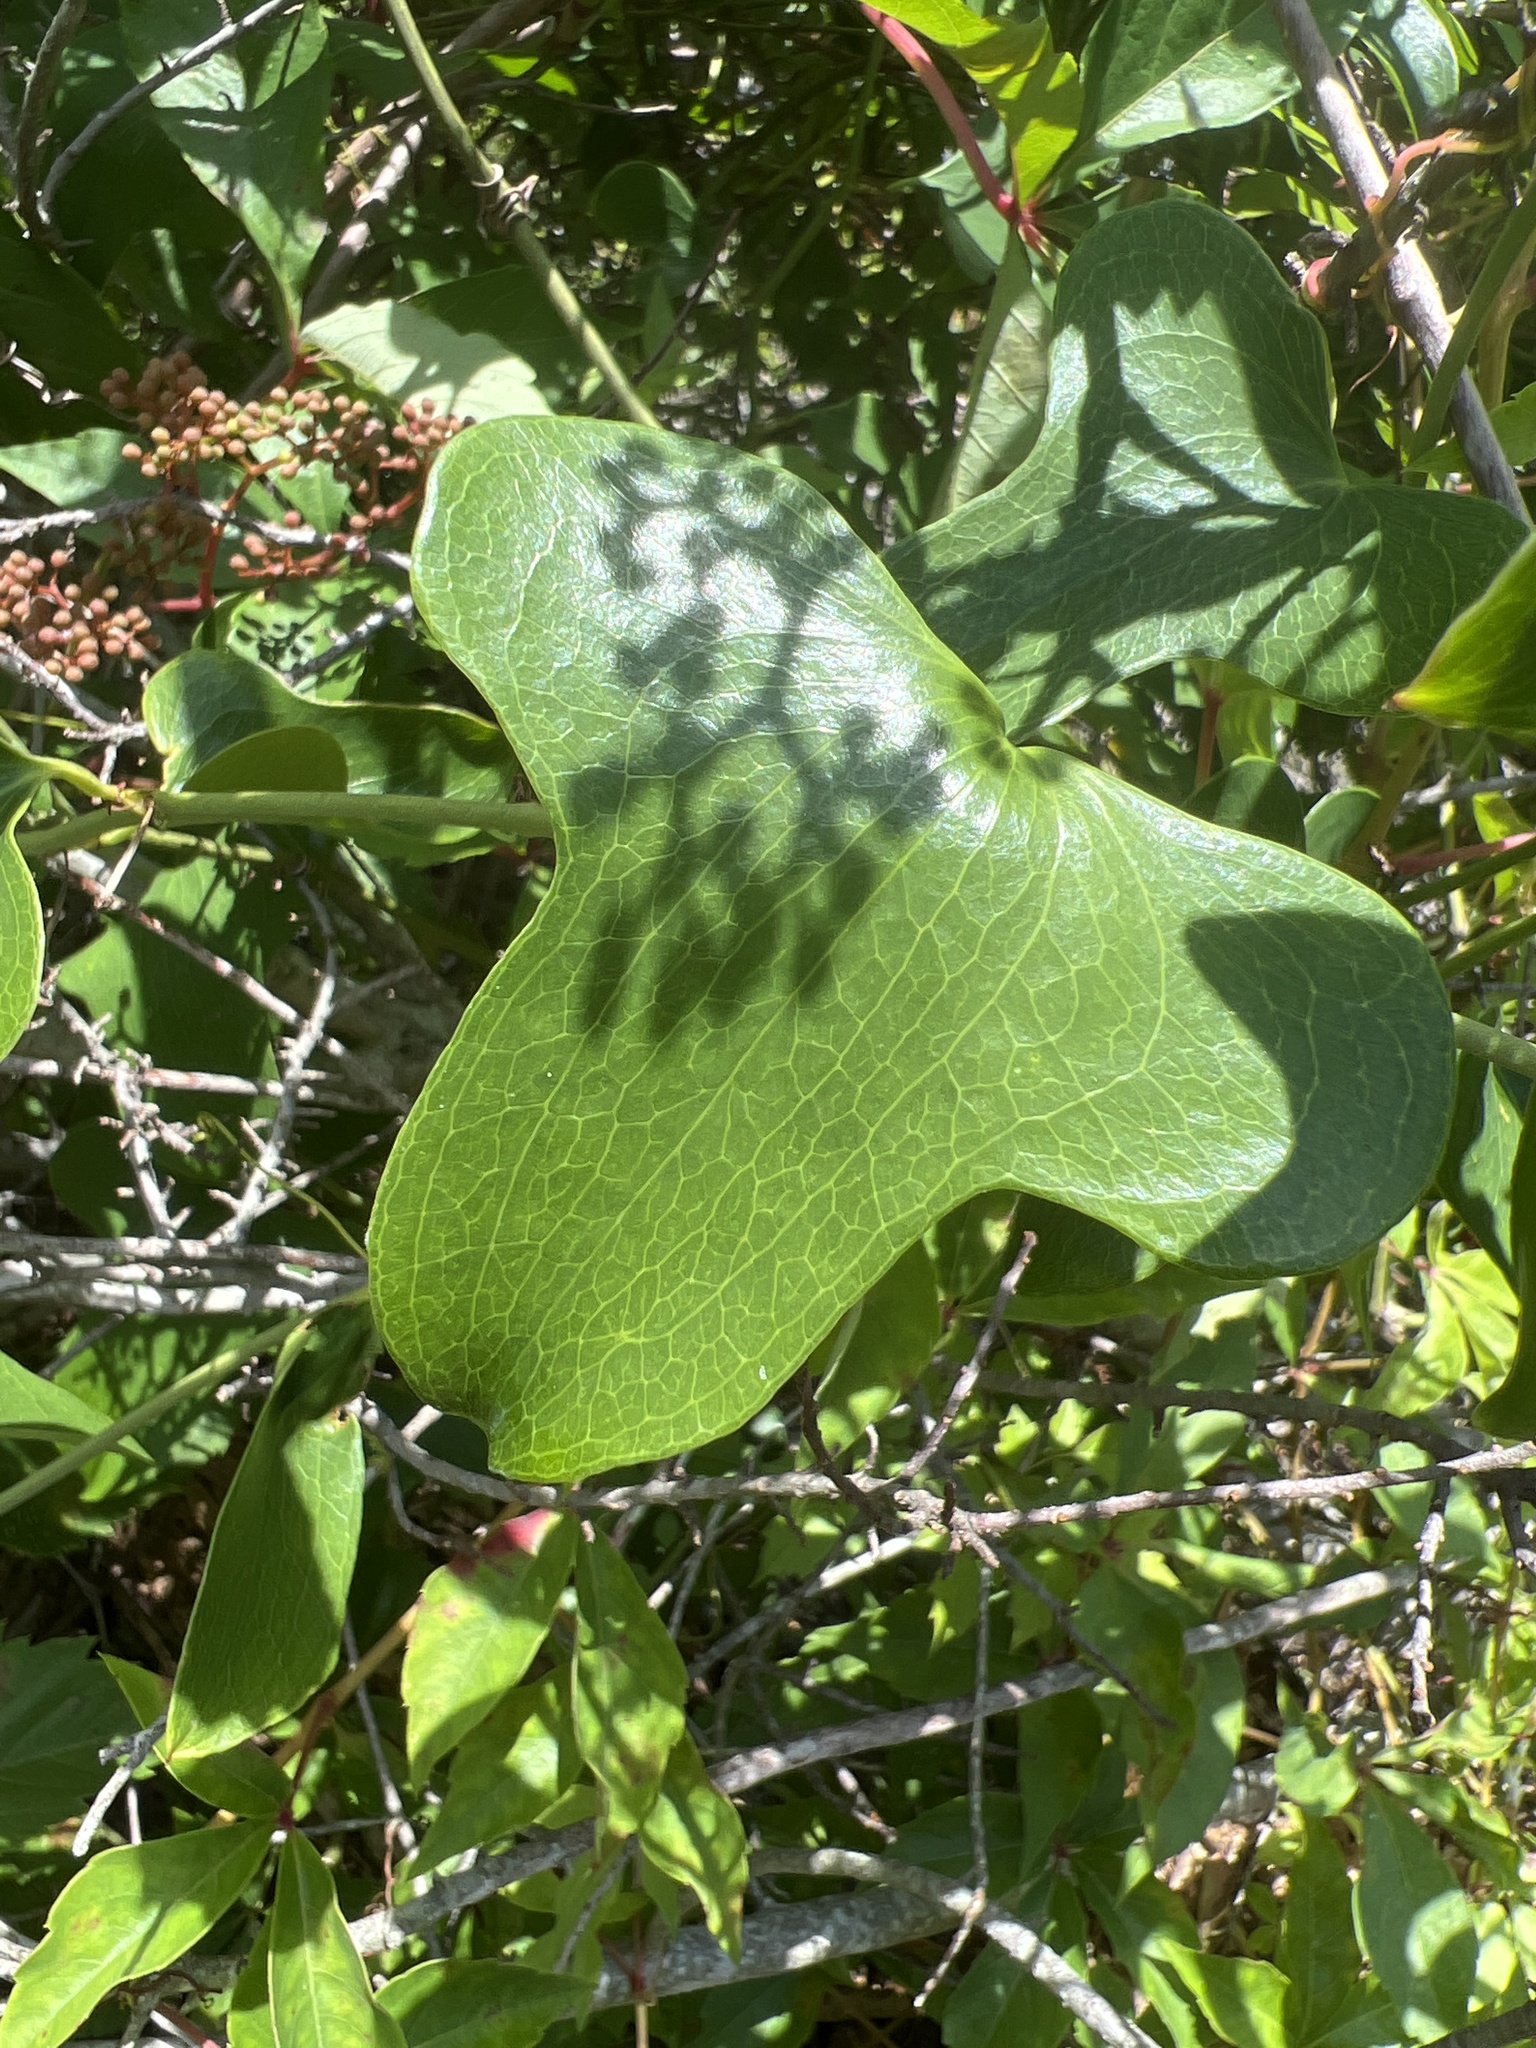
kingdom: Plantae
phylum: Tracheophyta
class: Liliopsida
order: Liliales
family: Smilacaceae
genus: Smilax
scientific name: Smilax bona-nox
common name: Catbrier
